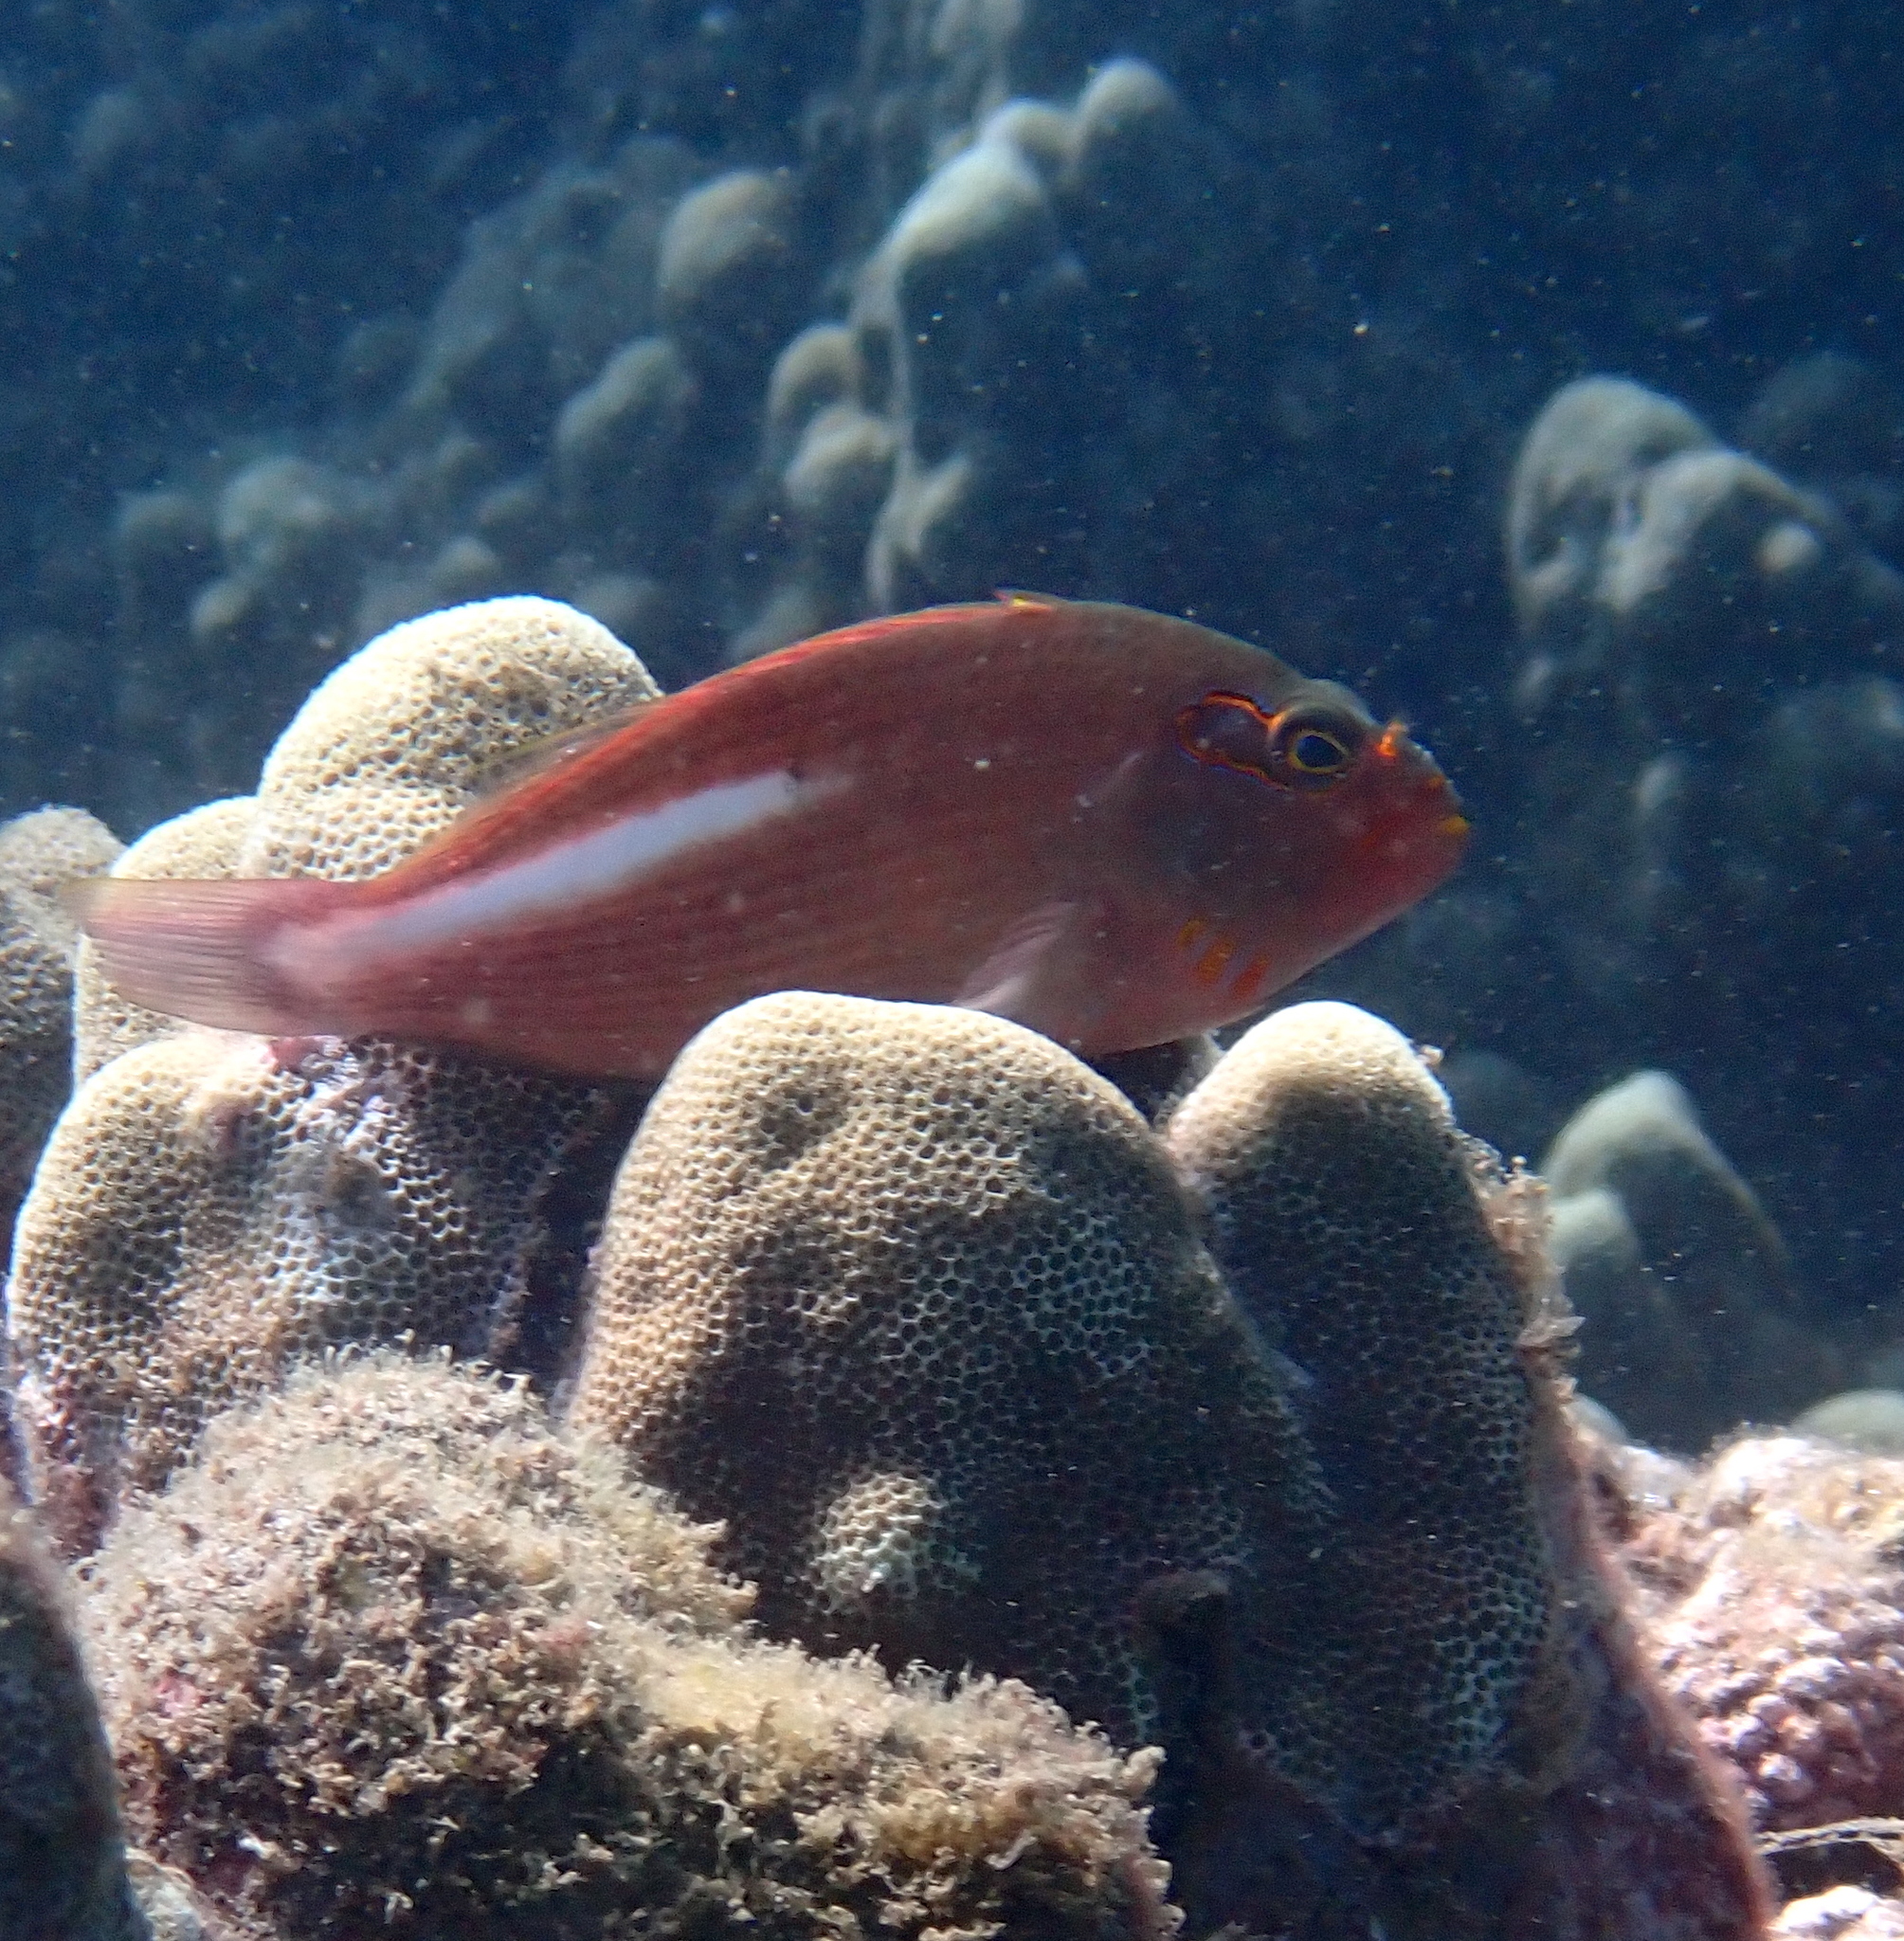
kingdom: Animalia
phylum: Chordata
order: Perciformes
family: Cirrhitidae
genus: Paracirrhites
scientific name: Paracirrhites arcatus
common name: Arc-eye hawkfish
